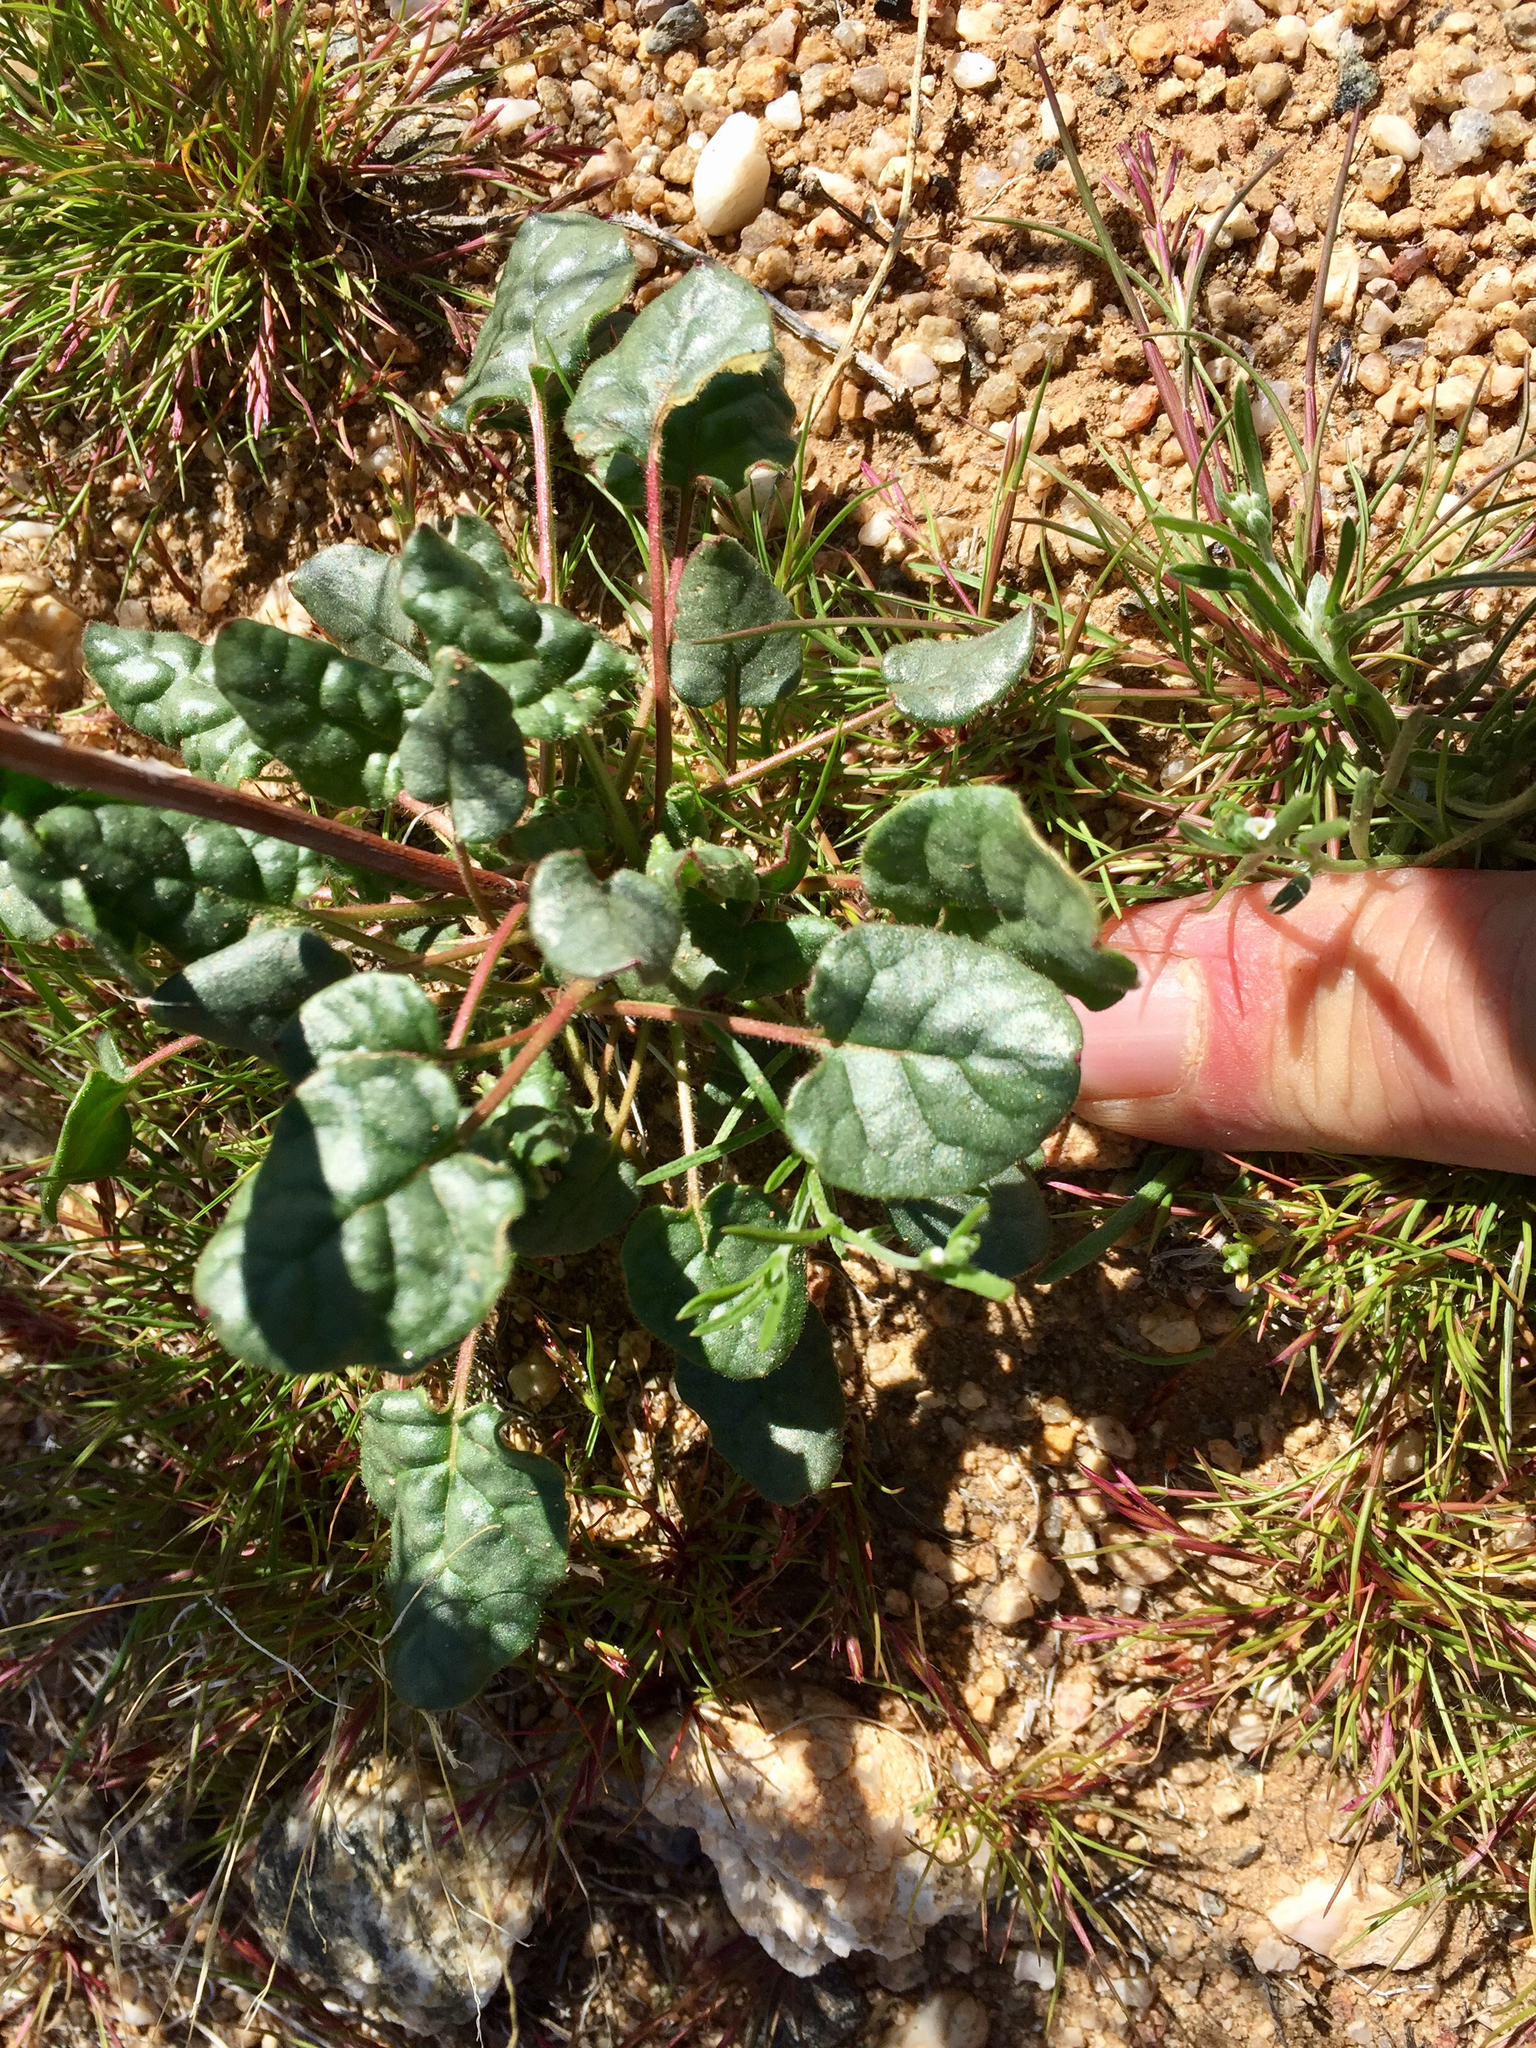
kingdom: Plantae
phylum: Tracheophyta
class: Magnoliopsida
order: Caryophyllales
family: Polygonaceae
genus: Eriogonum
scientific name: Eriogonum inflatum
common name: Desert trumpet
